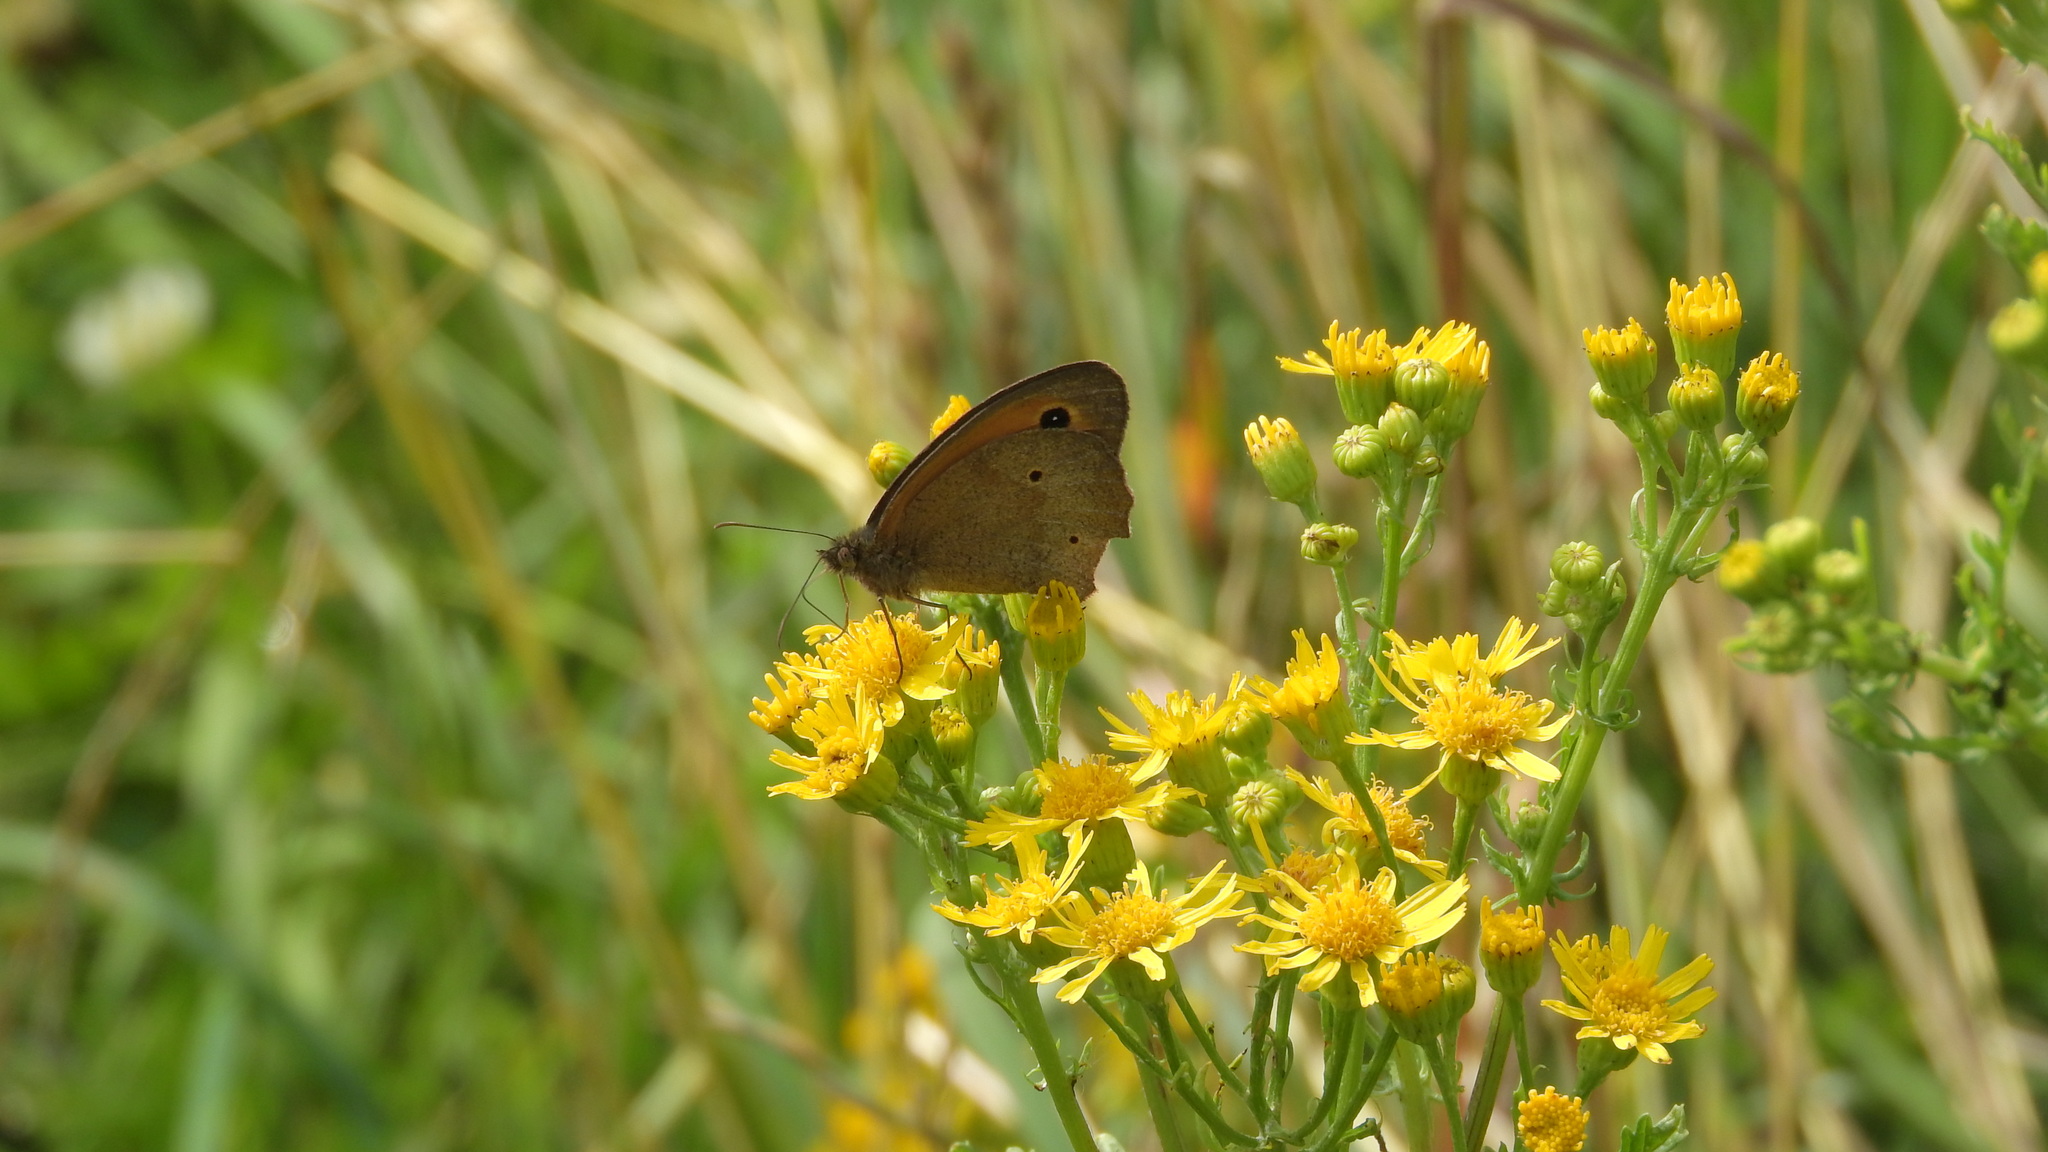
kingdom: Animalia
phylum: Arthropoda
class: Insecta
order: Lepidoptera
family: Nymphalidae
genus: Maniola
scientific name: Maniola jurtina
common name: Meadow brown
